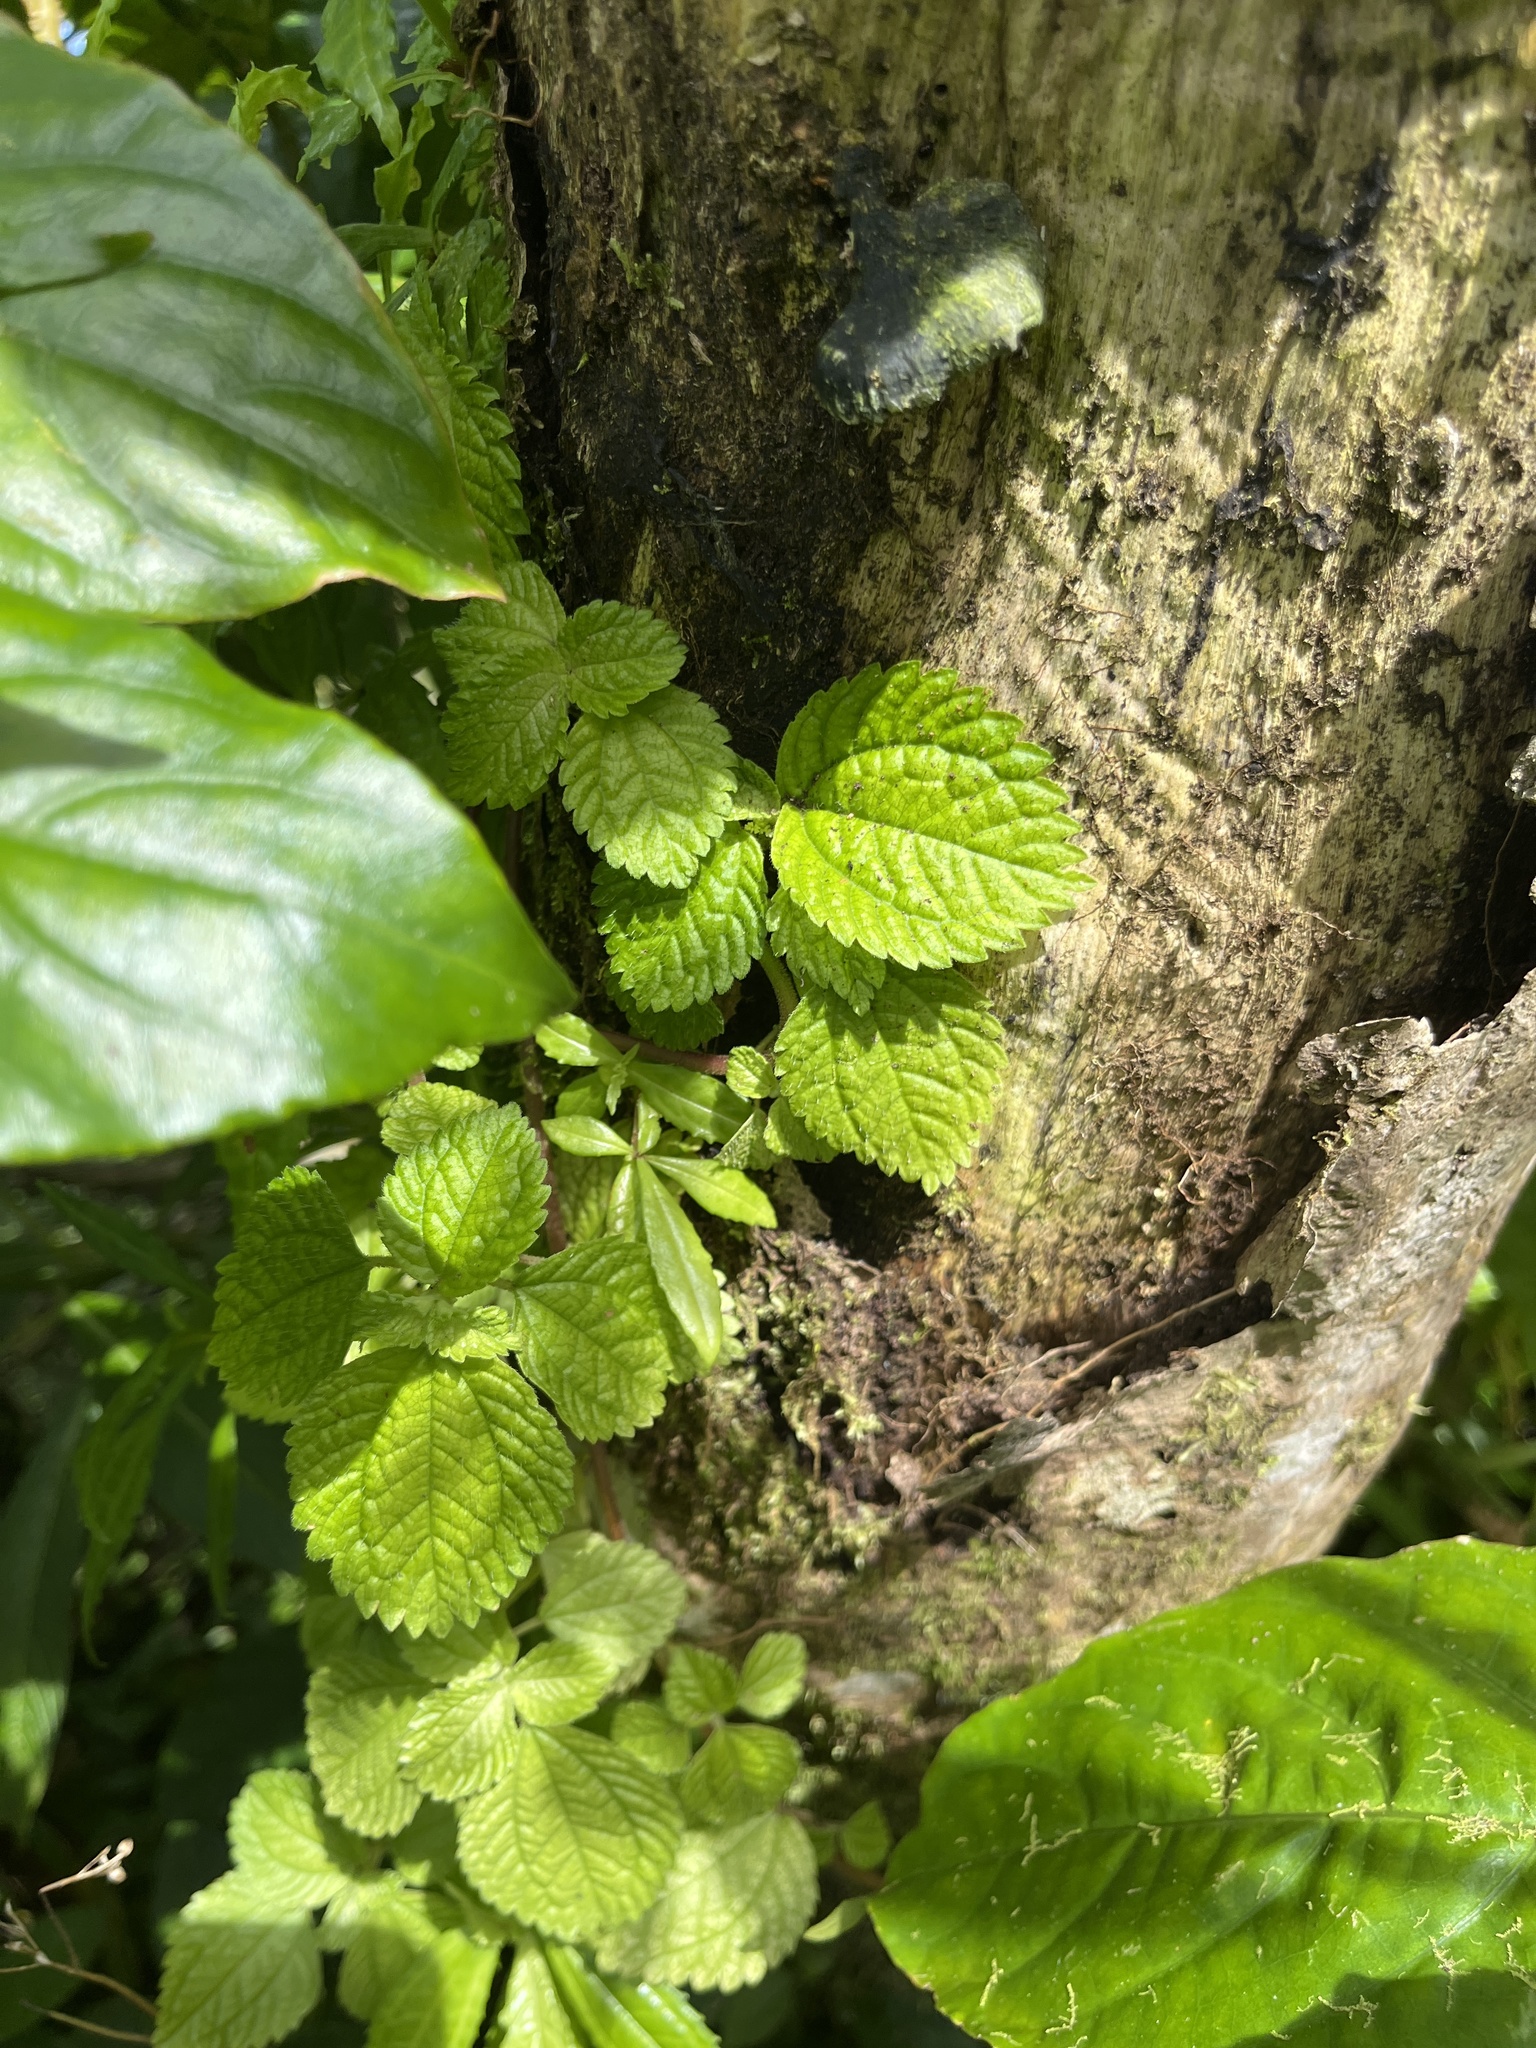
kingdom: Plantae
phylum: Tracheophyta
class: Magnoliopsida
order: Rosales
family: Urticaceae
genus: Pilea
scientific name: Pilea inaequalis
